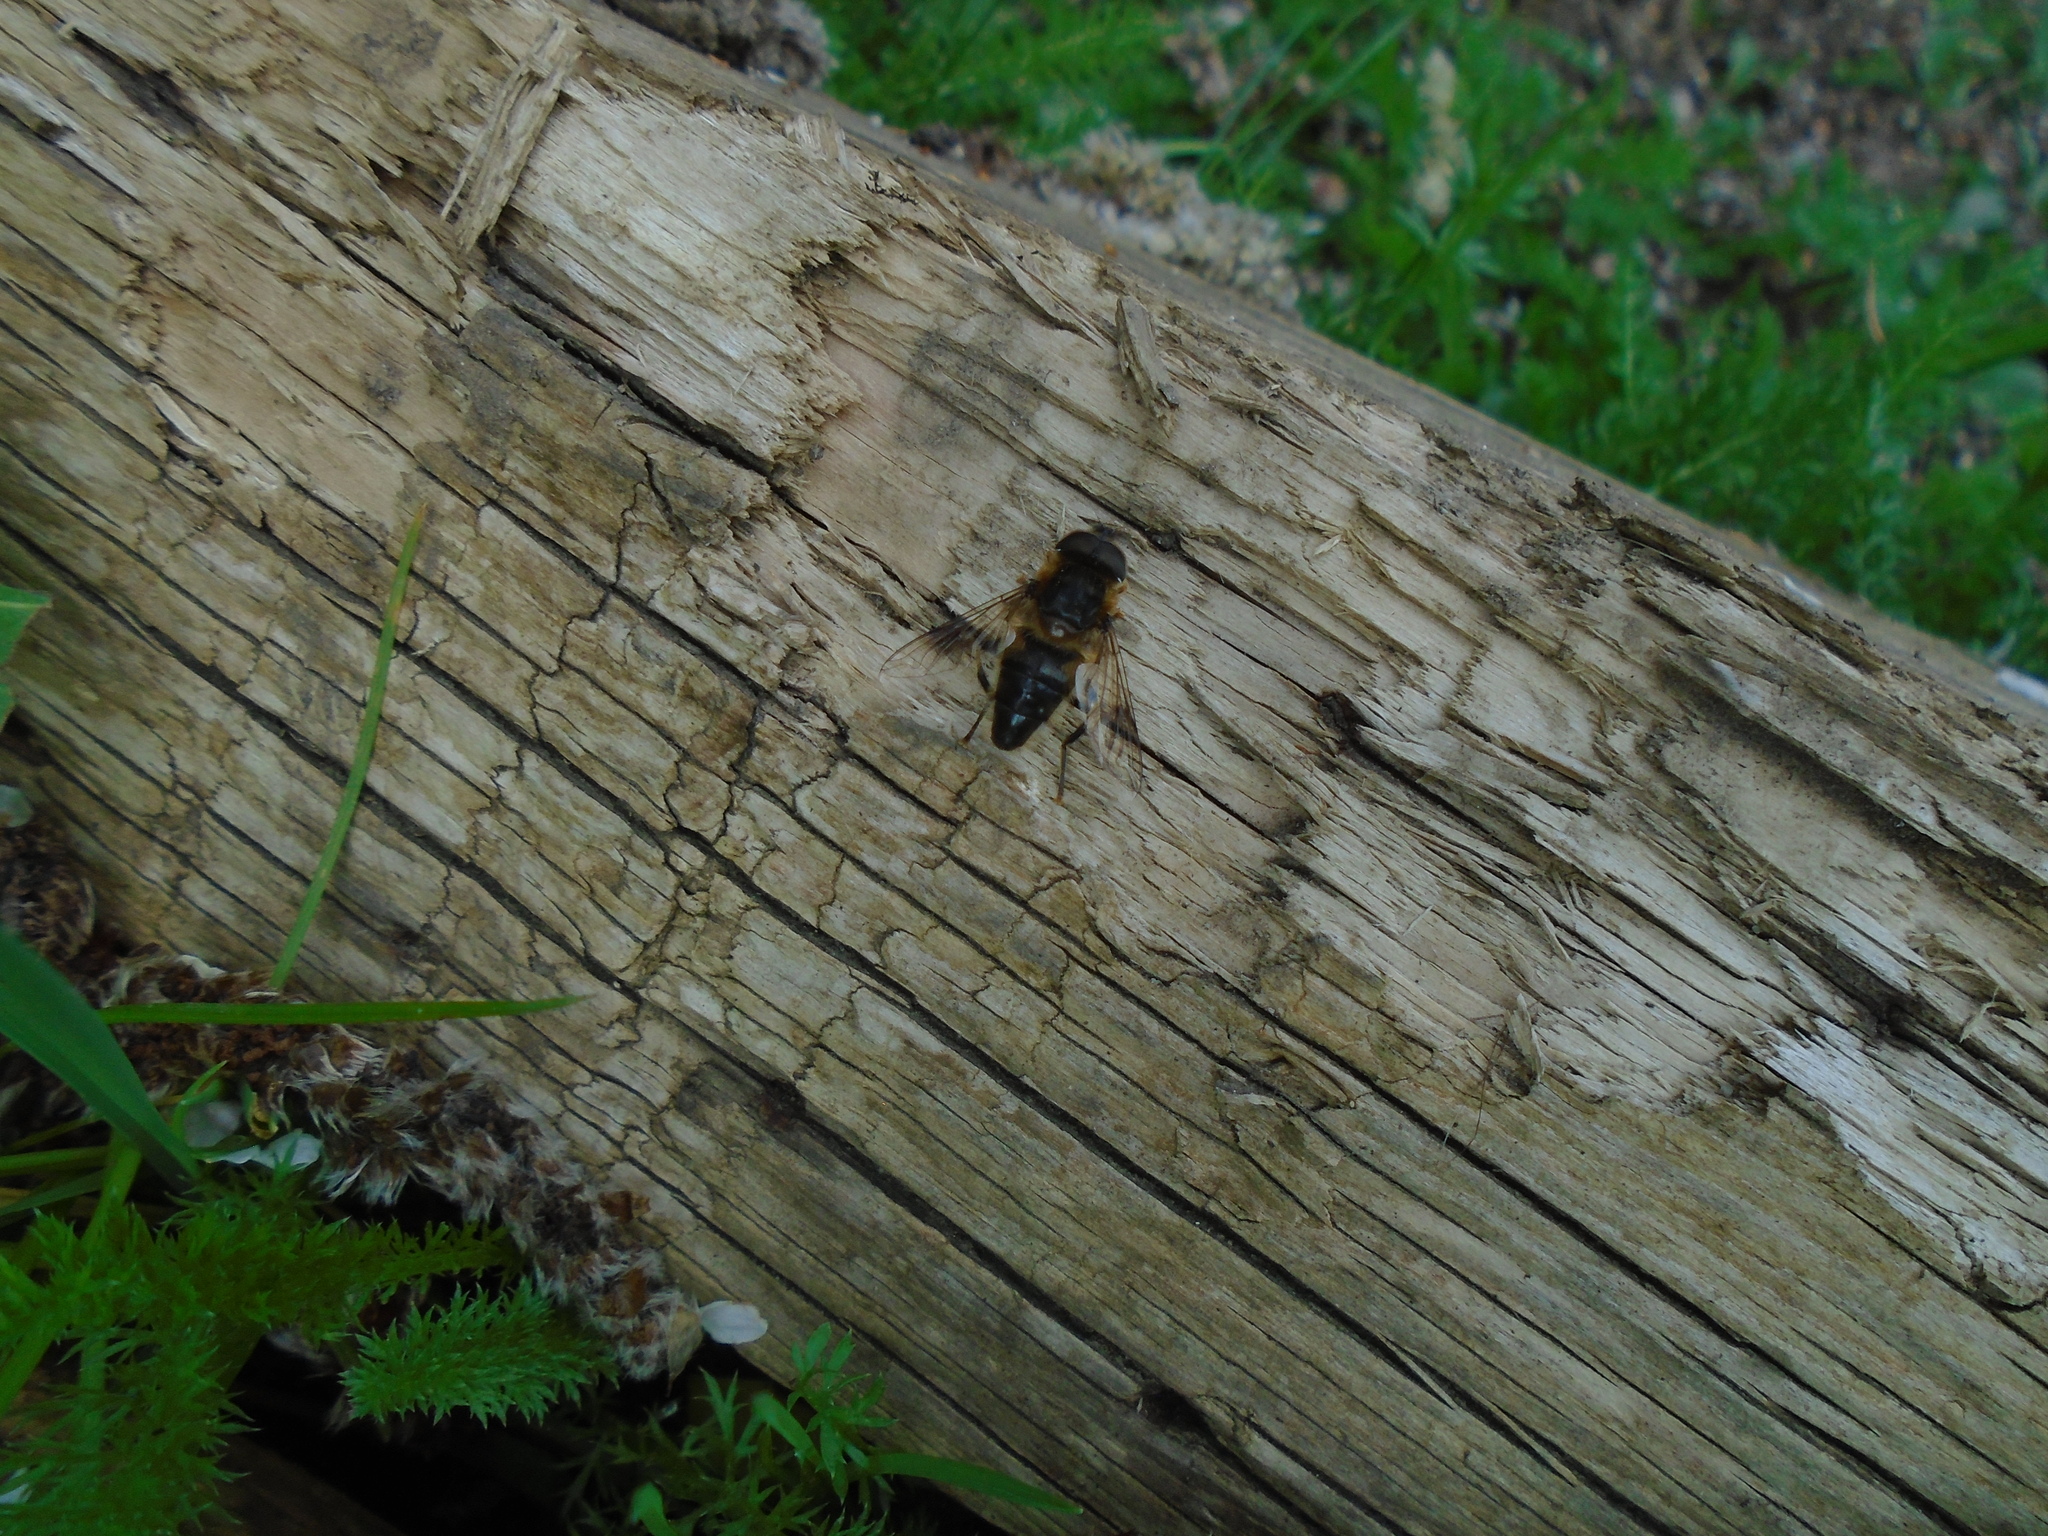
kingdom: Animalia
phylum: Arthropoda
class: Insecta
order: Diptera
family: Syrphidae
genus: Eristalis
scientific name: Eristalis pertinax
